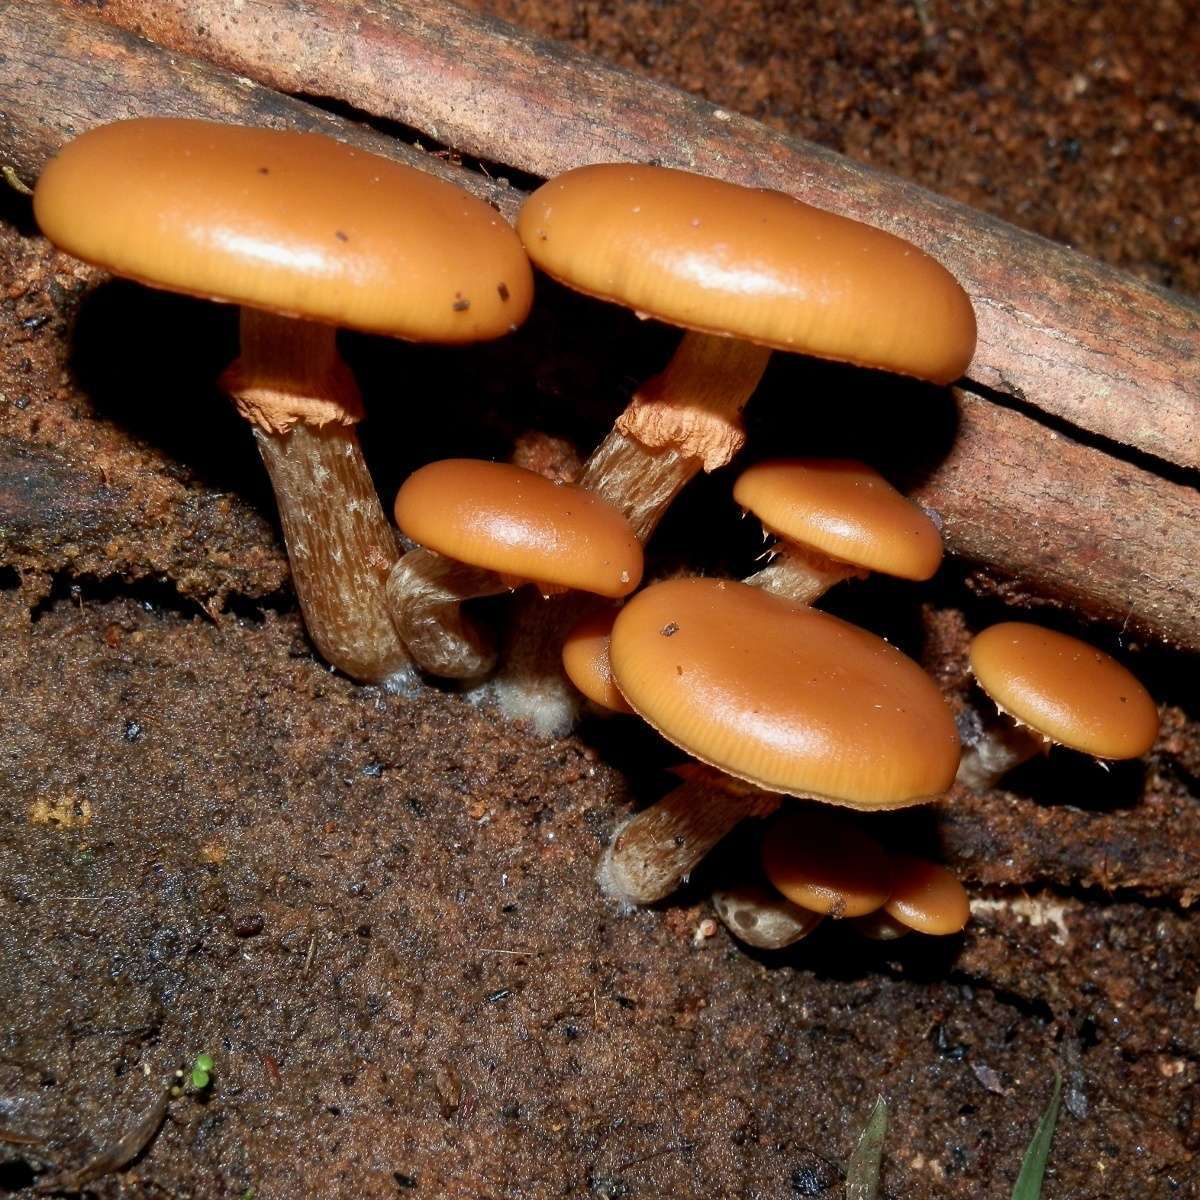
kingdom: Fungi
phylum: Basidiomycota
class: Agaricomycetes
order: Agaricales
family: Hymenogastraceae
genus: Galerina
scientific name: Galerina patagonica
